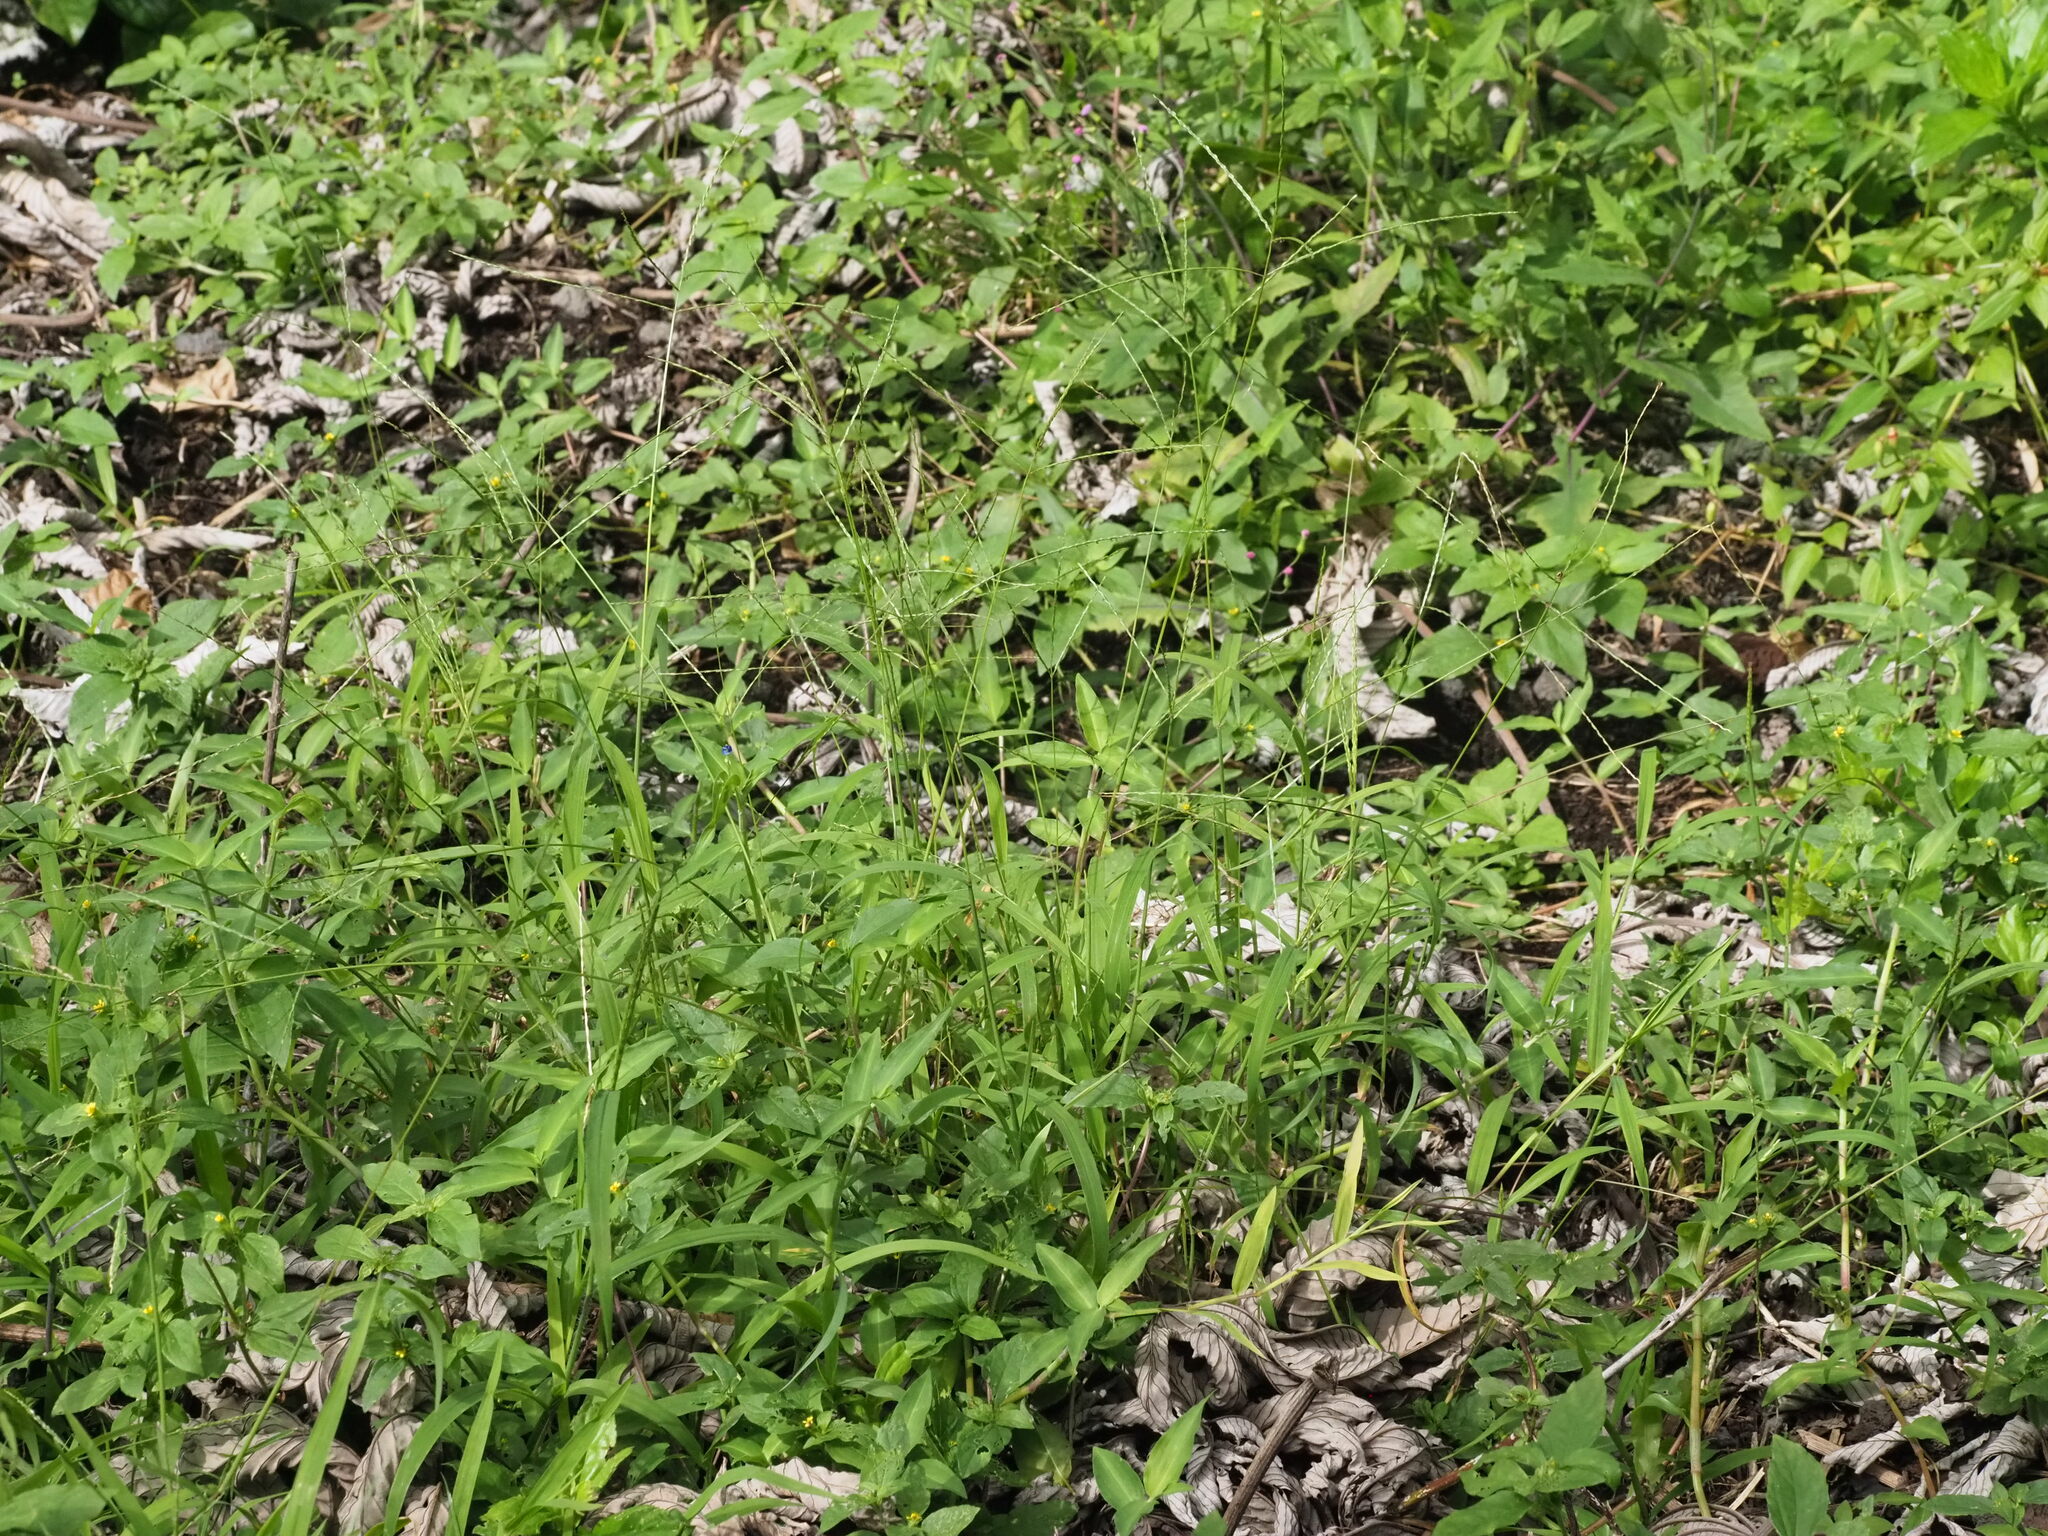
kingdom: Plantae
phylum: Tracheophyta
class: Liliopsida
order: Poales
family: Poaceae
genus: Digitaria
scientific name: Digitaria ciliaris
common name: Tropical finger-grass
